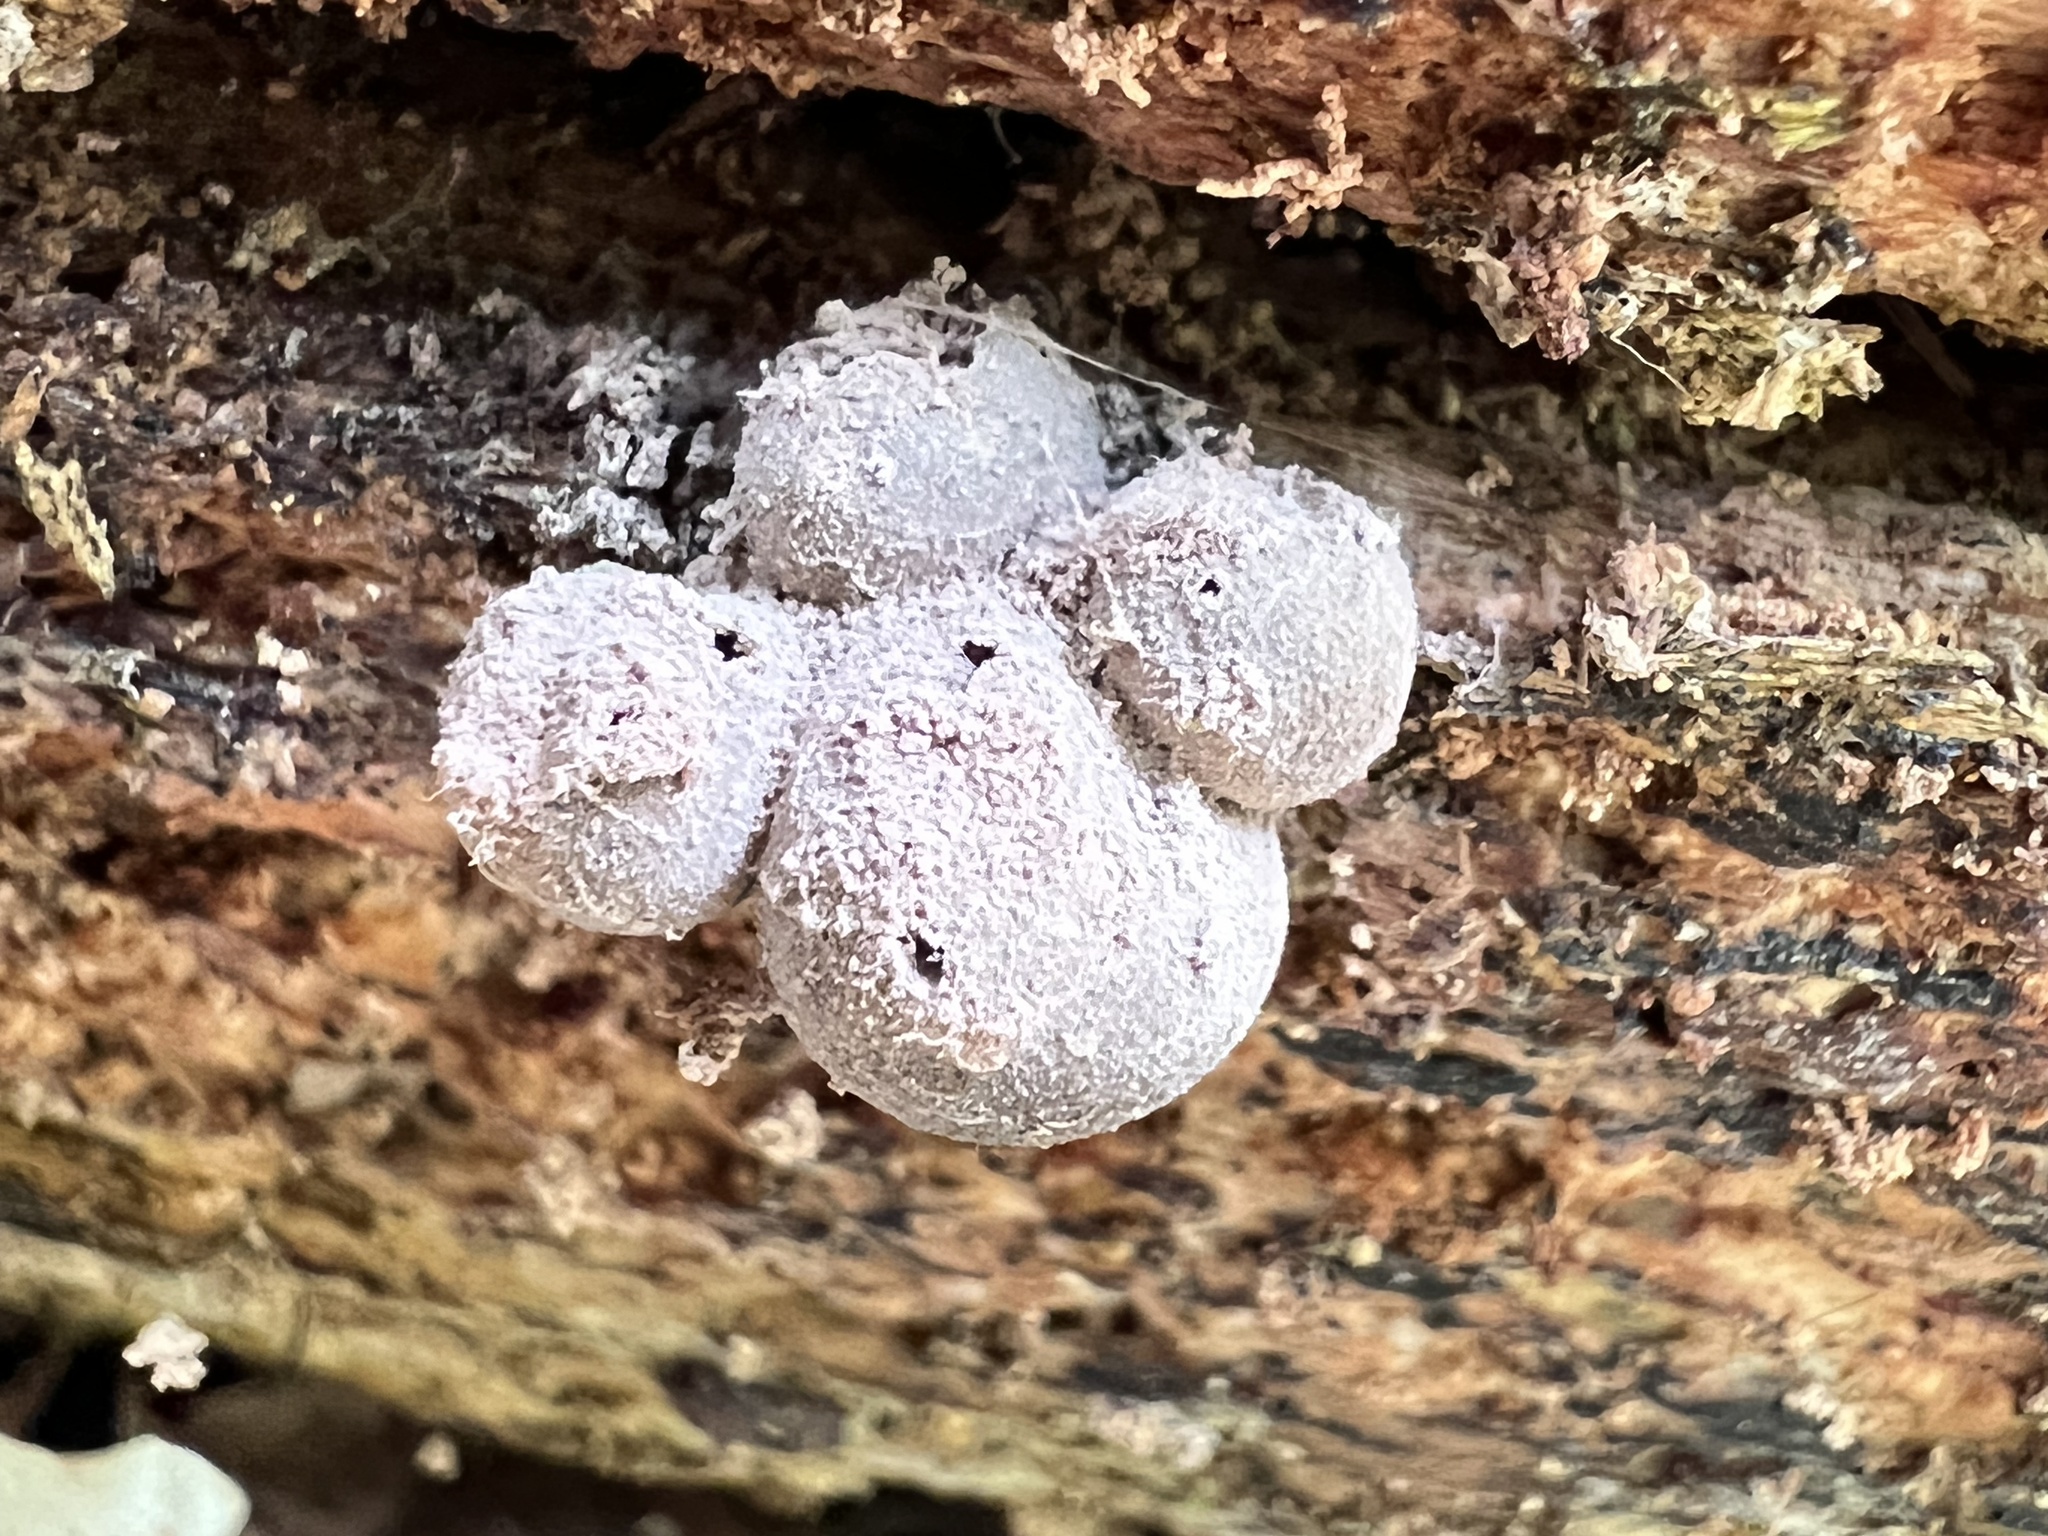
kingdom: Protozoa
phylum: Mycetozoa
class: Myxomycetes
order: Cribrariales
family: Tubiferaceae
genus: Lycogala
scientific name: Lycogala epidendrum
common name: Wolf's milk
